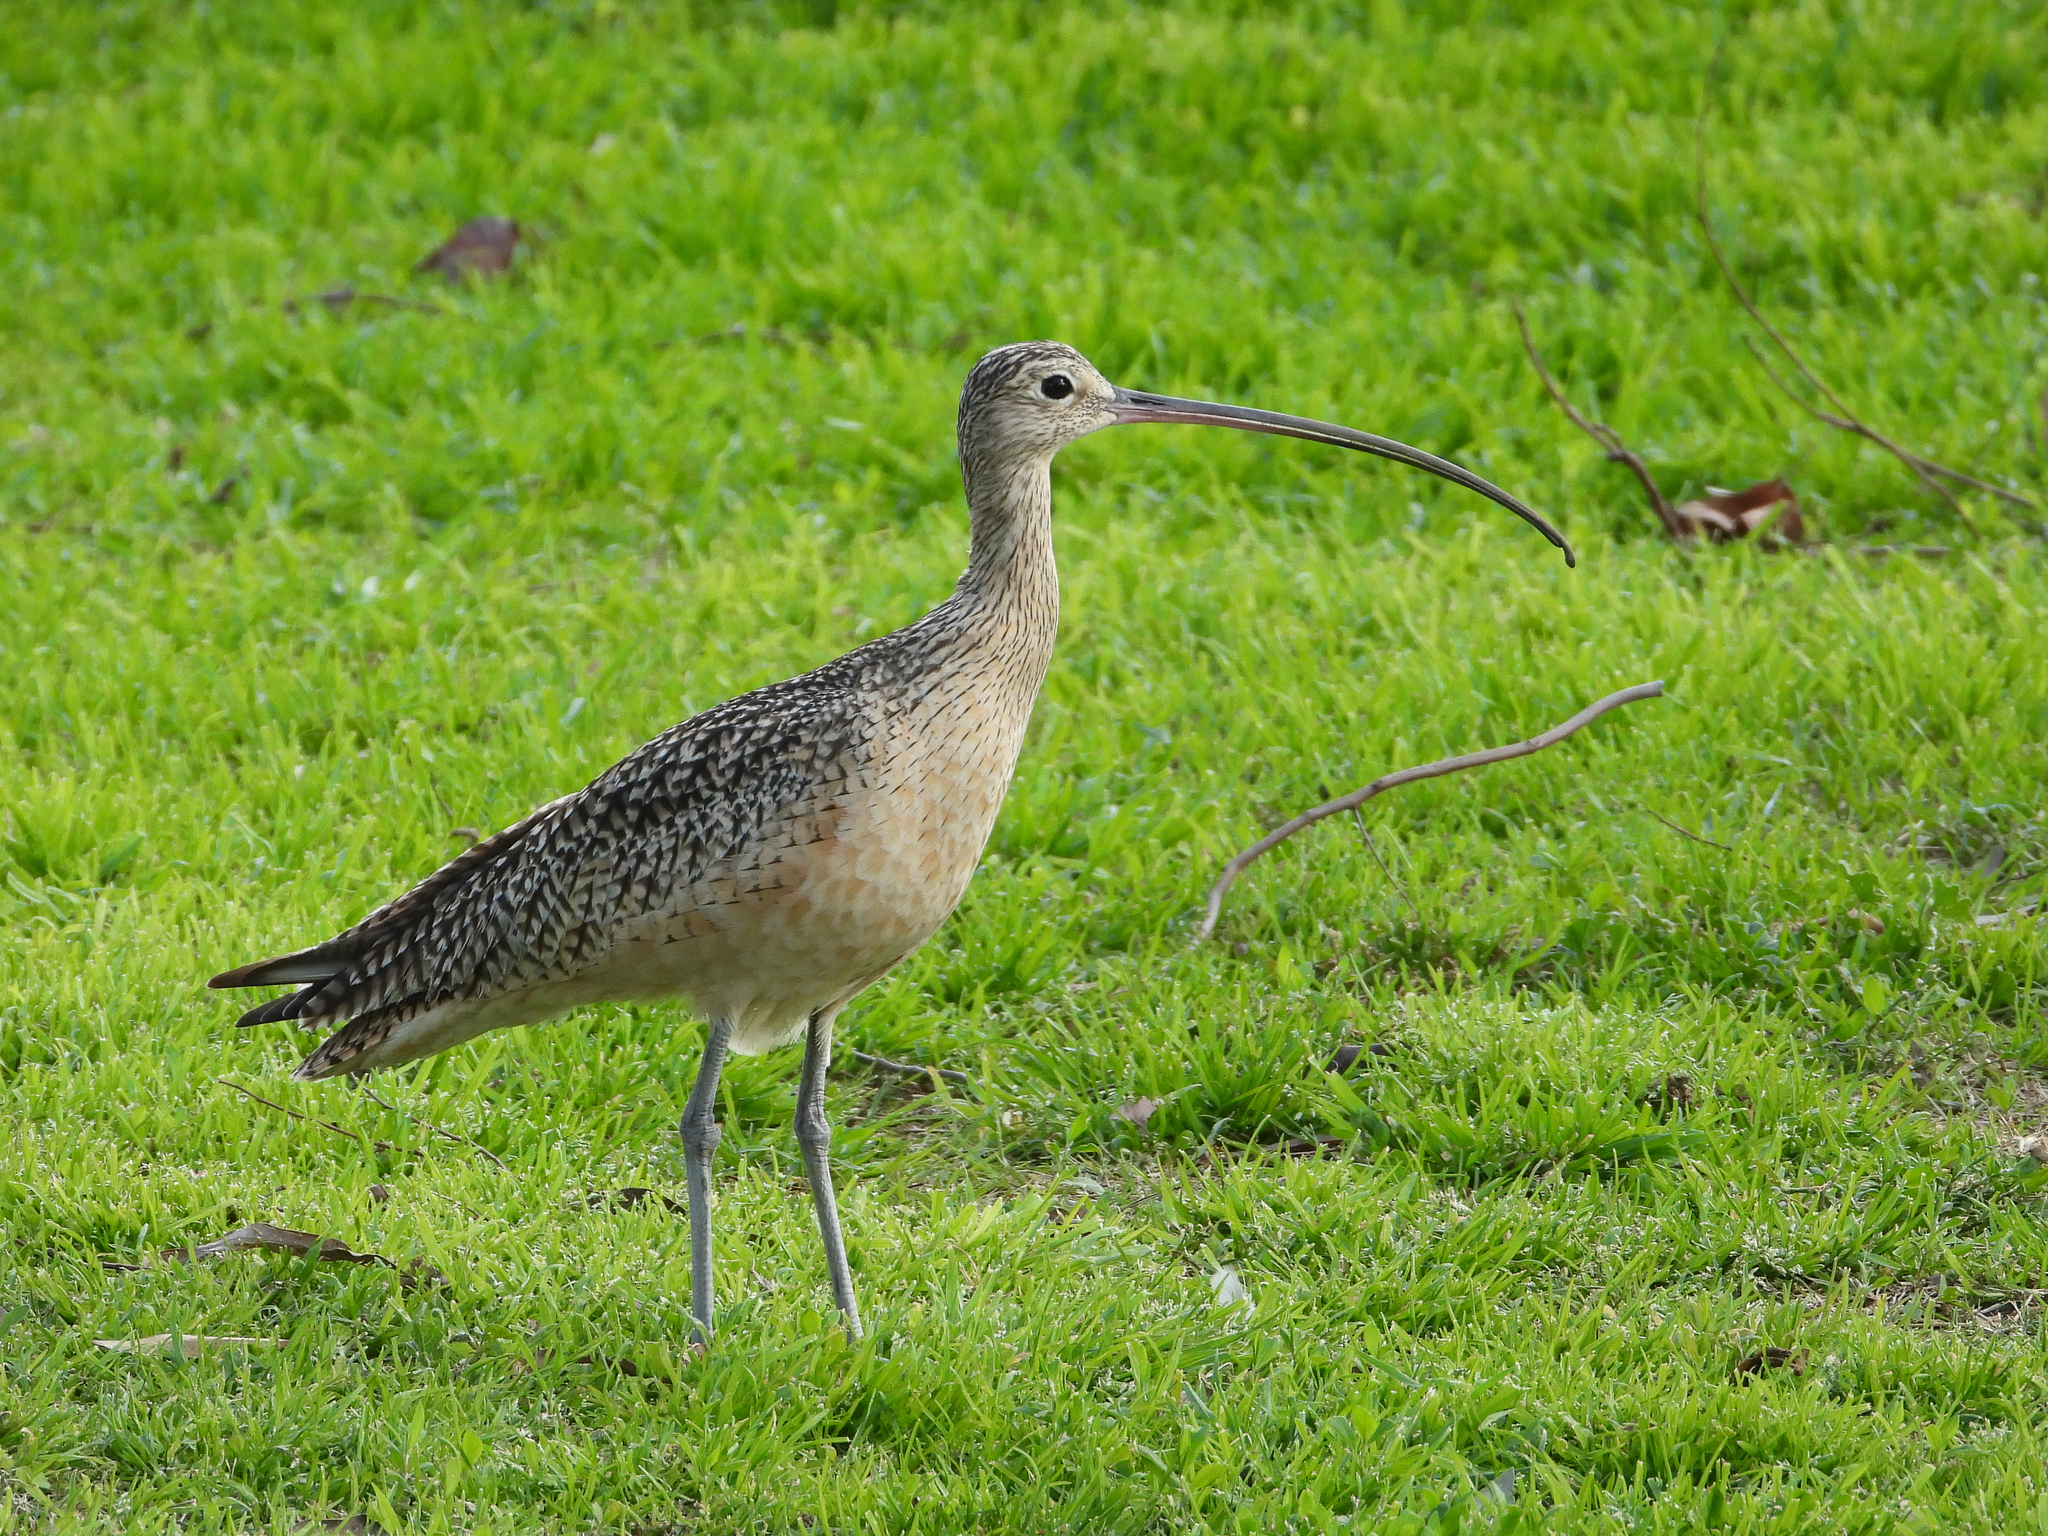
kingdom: Animalia
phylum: Chordata
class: Aves
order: Charadriiformes
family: Scolopacidae
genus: Numenius
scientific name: Numenius americanus
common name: Long-billed curlew
